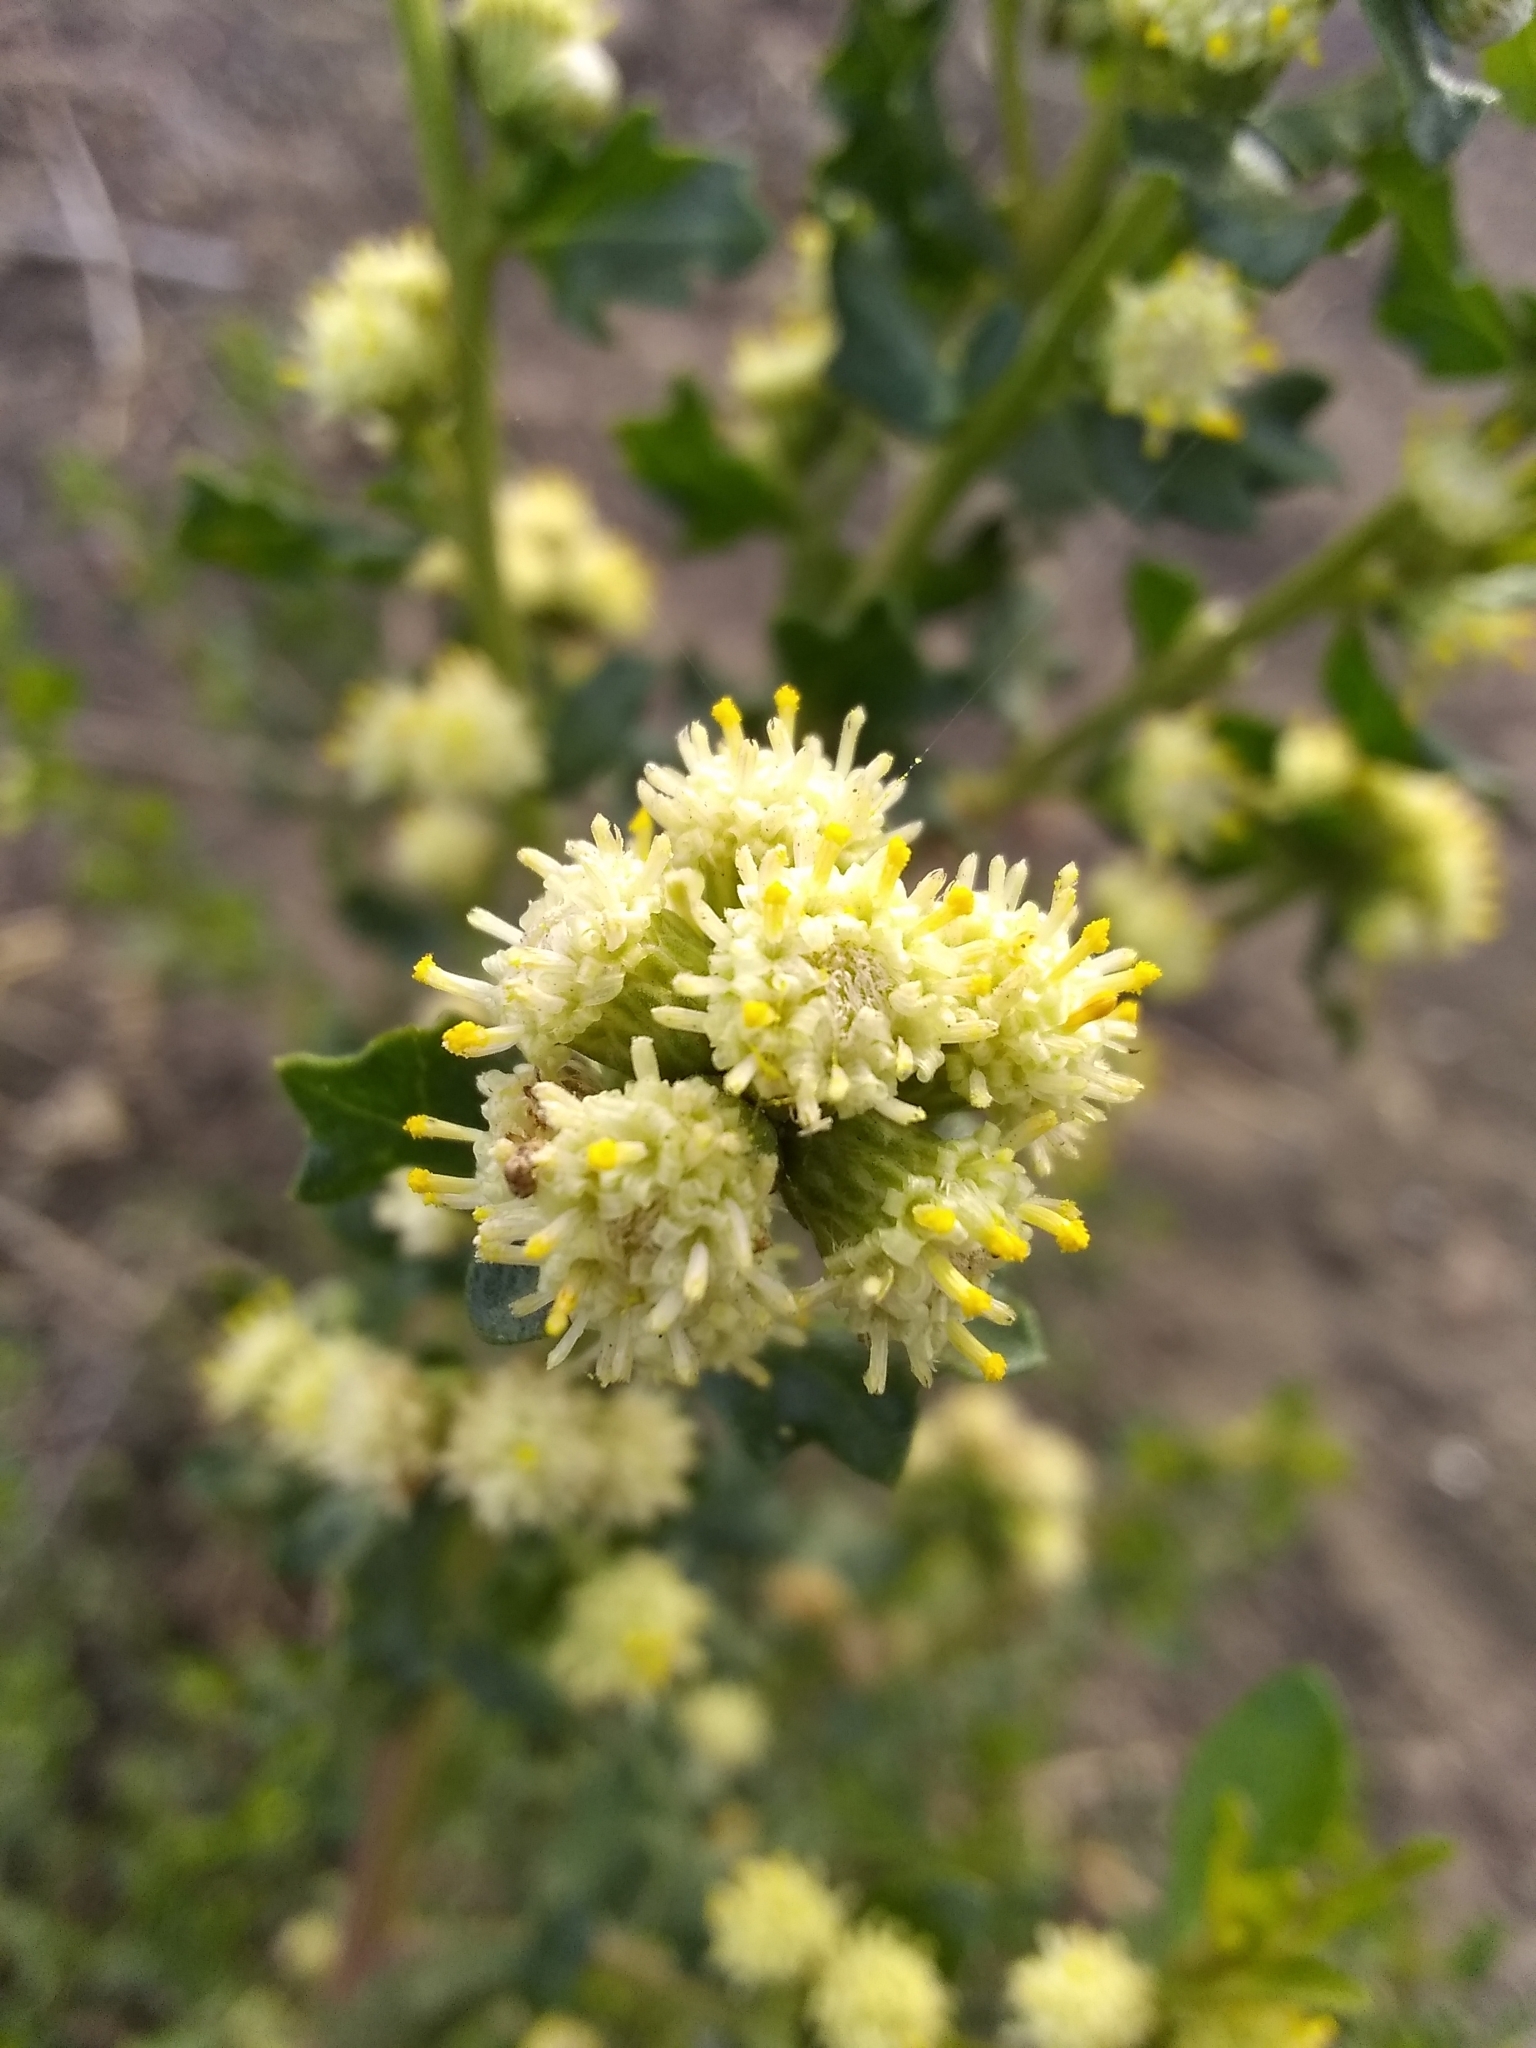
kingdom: Plantae
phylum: Tracheophyta
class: Magnoliopsida
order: Asterales
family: Asteraceae
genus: Baccharis
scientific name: Baccharis pilularis
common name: Coyotebrush
